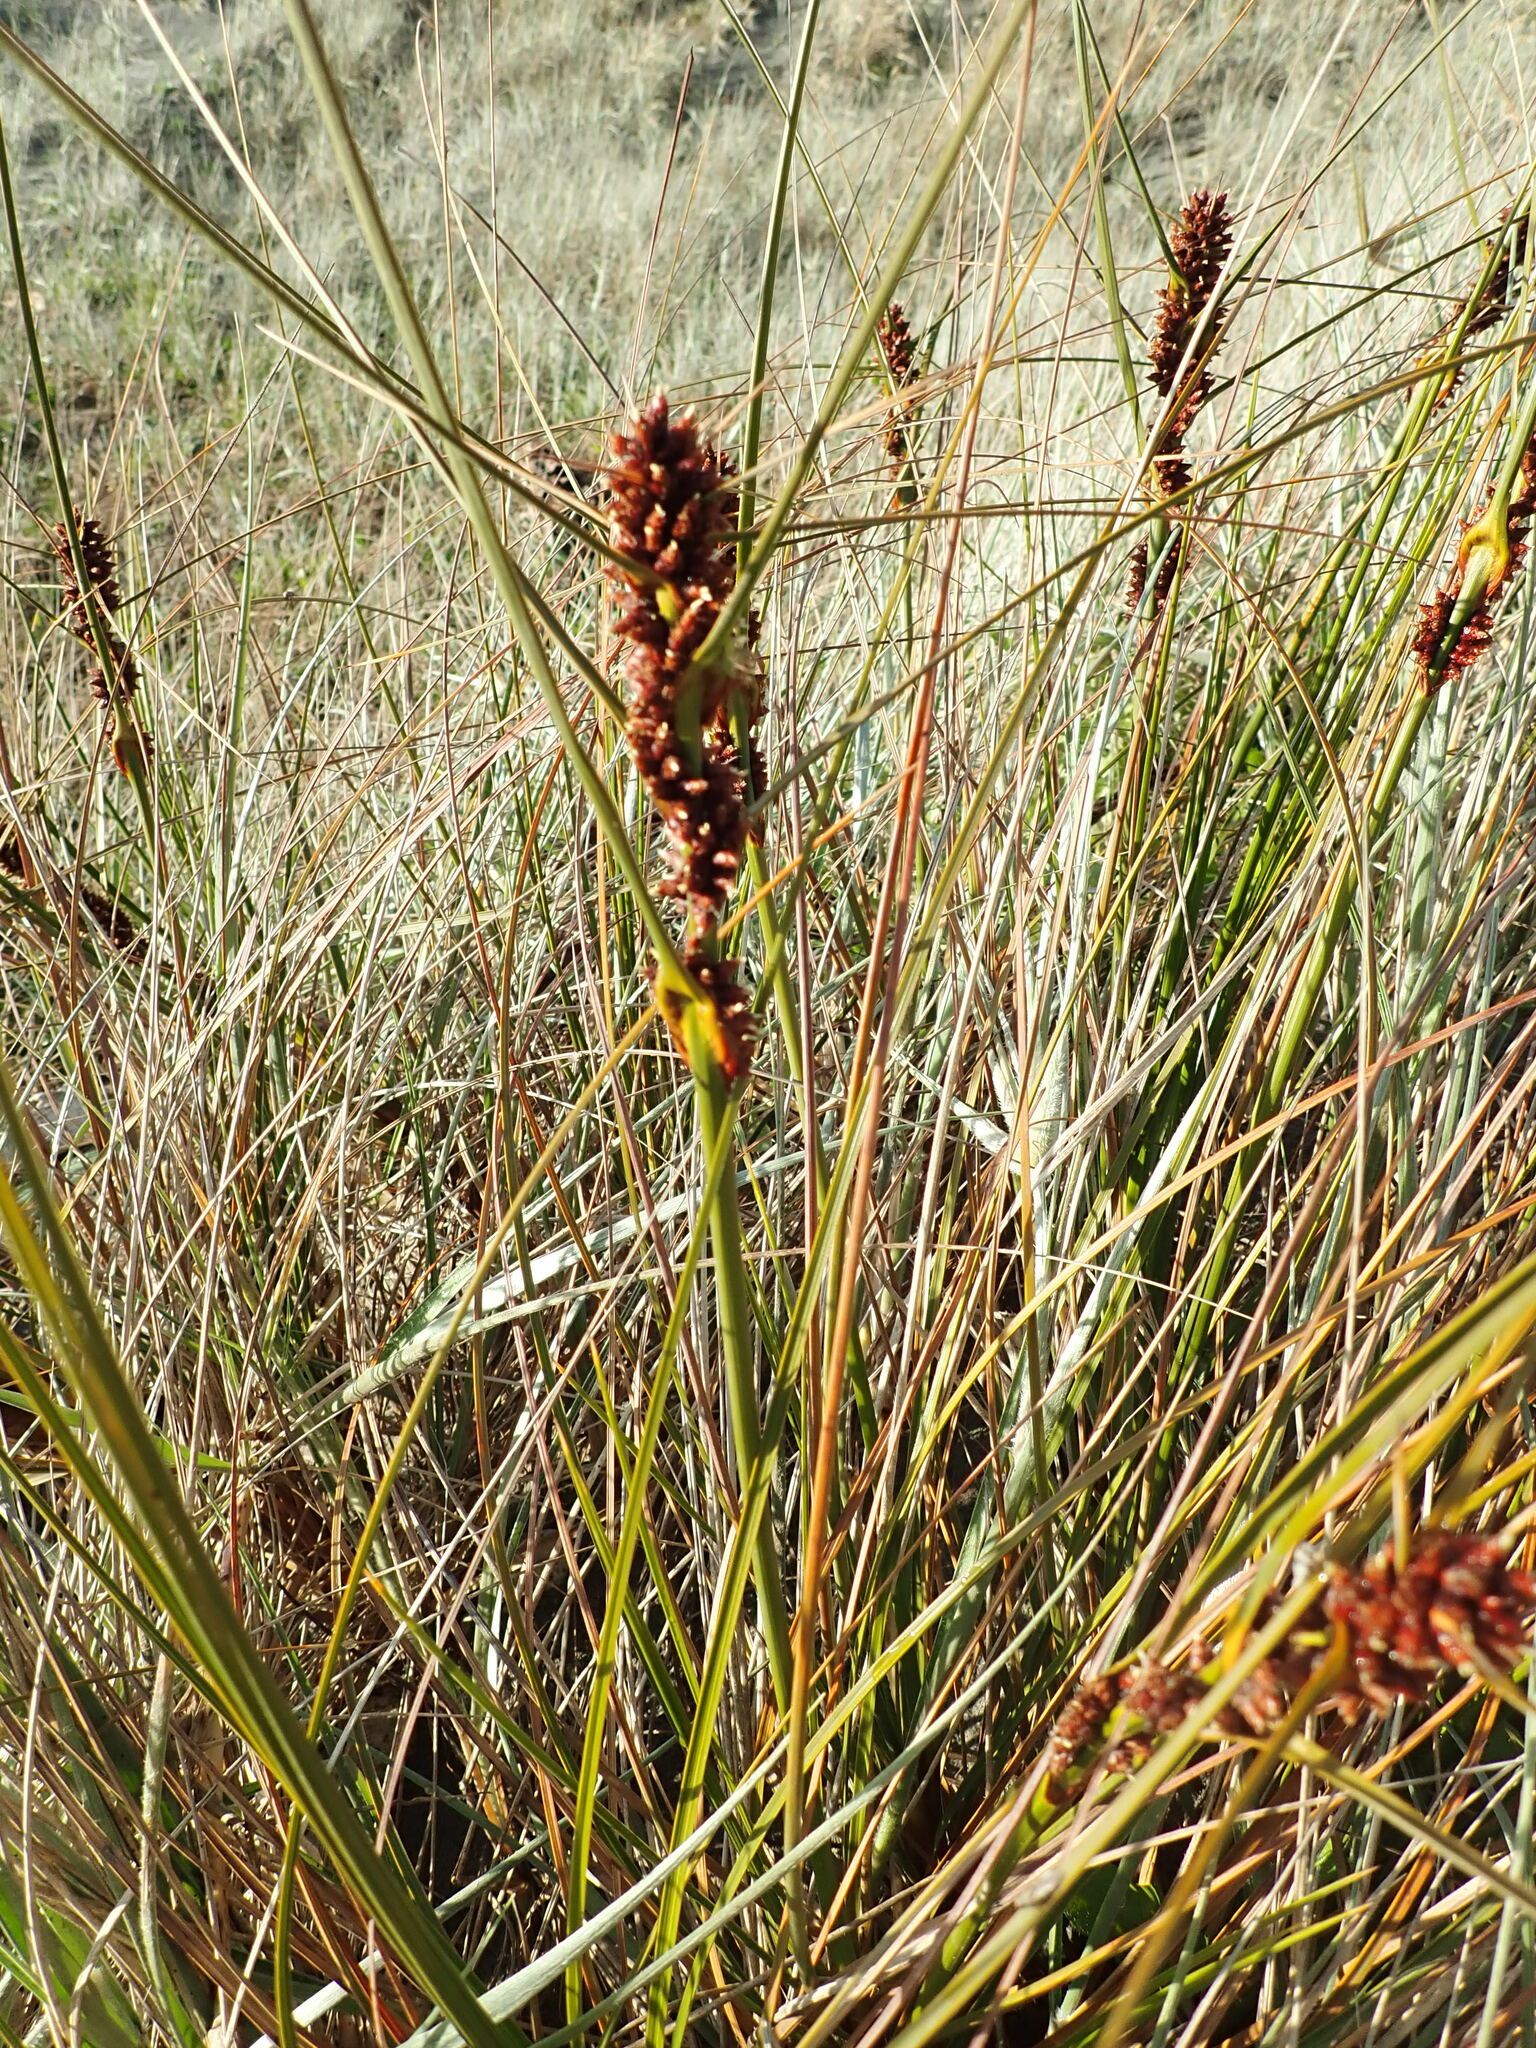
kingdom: Plantae
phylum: Tracheophyta
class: Liliopsida
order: Poales
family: Cyperaceae
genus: Ficinia
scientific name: Ficinia spiralis
